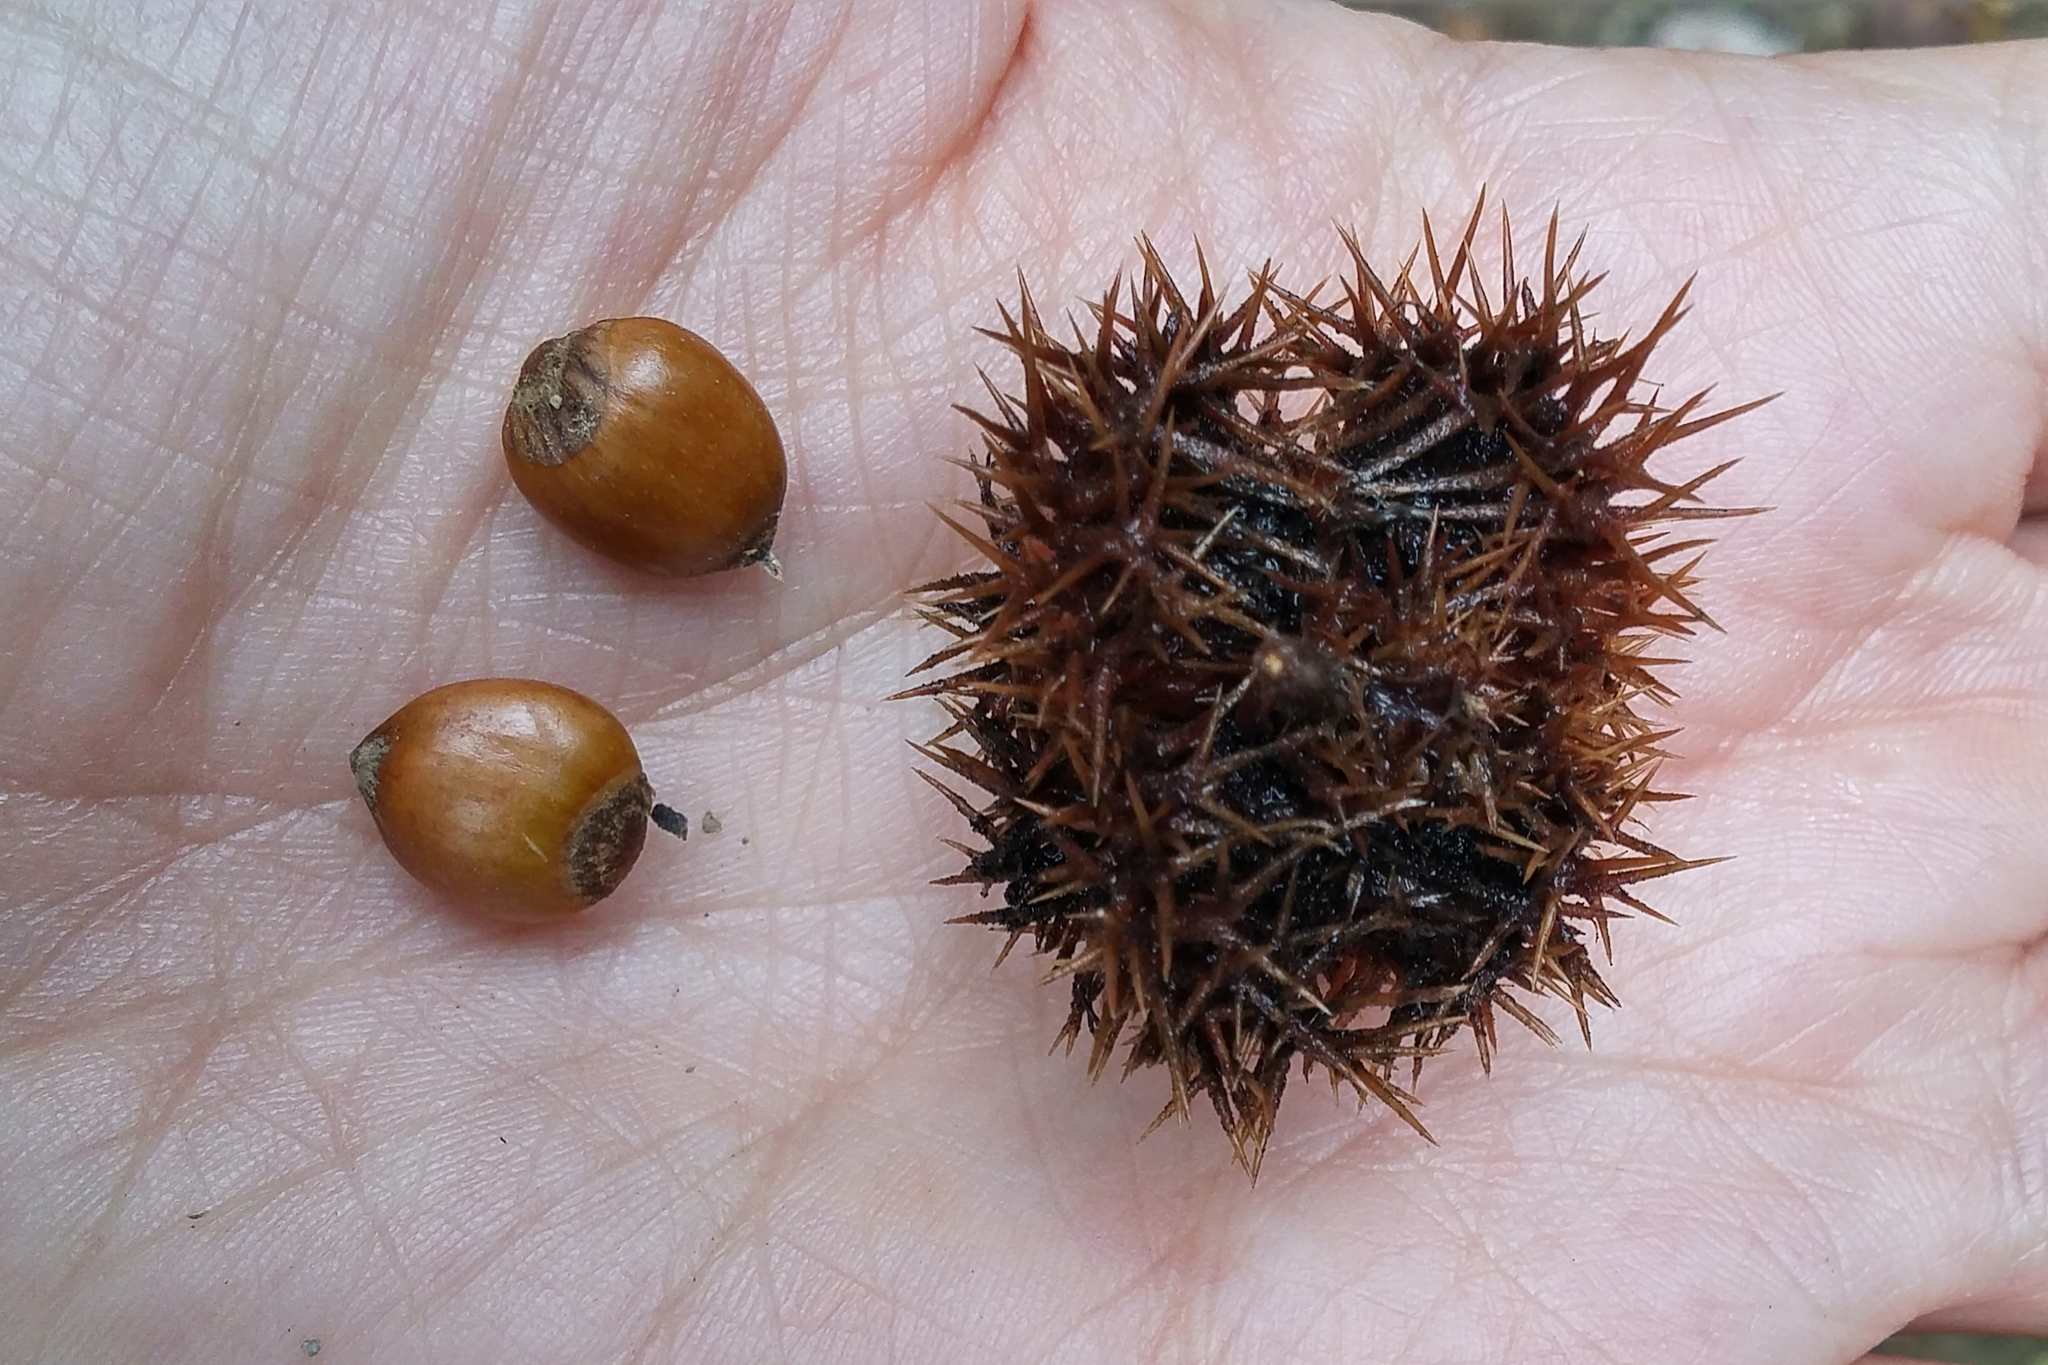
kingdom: Plantae
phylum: Tracheophyta
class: Magnoliopsida
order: Fagales
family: Betulaceae
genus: Corylus
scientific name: Corylus ferox
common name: Himalayan hazel
